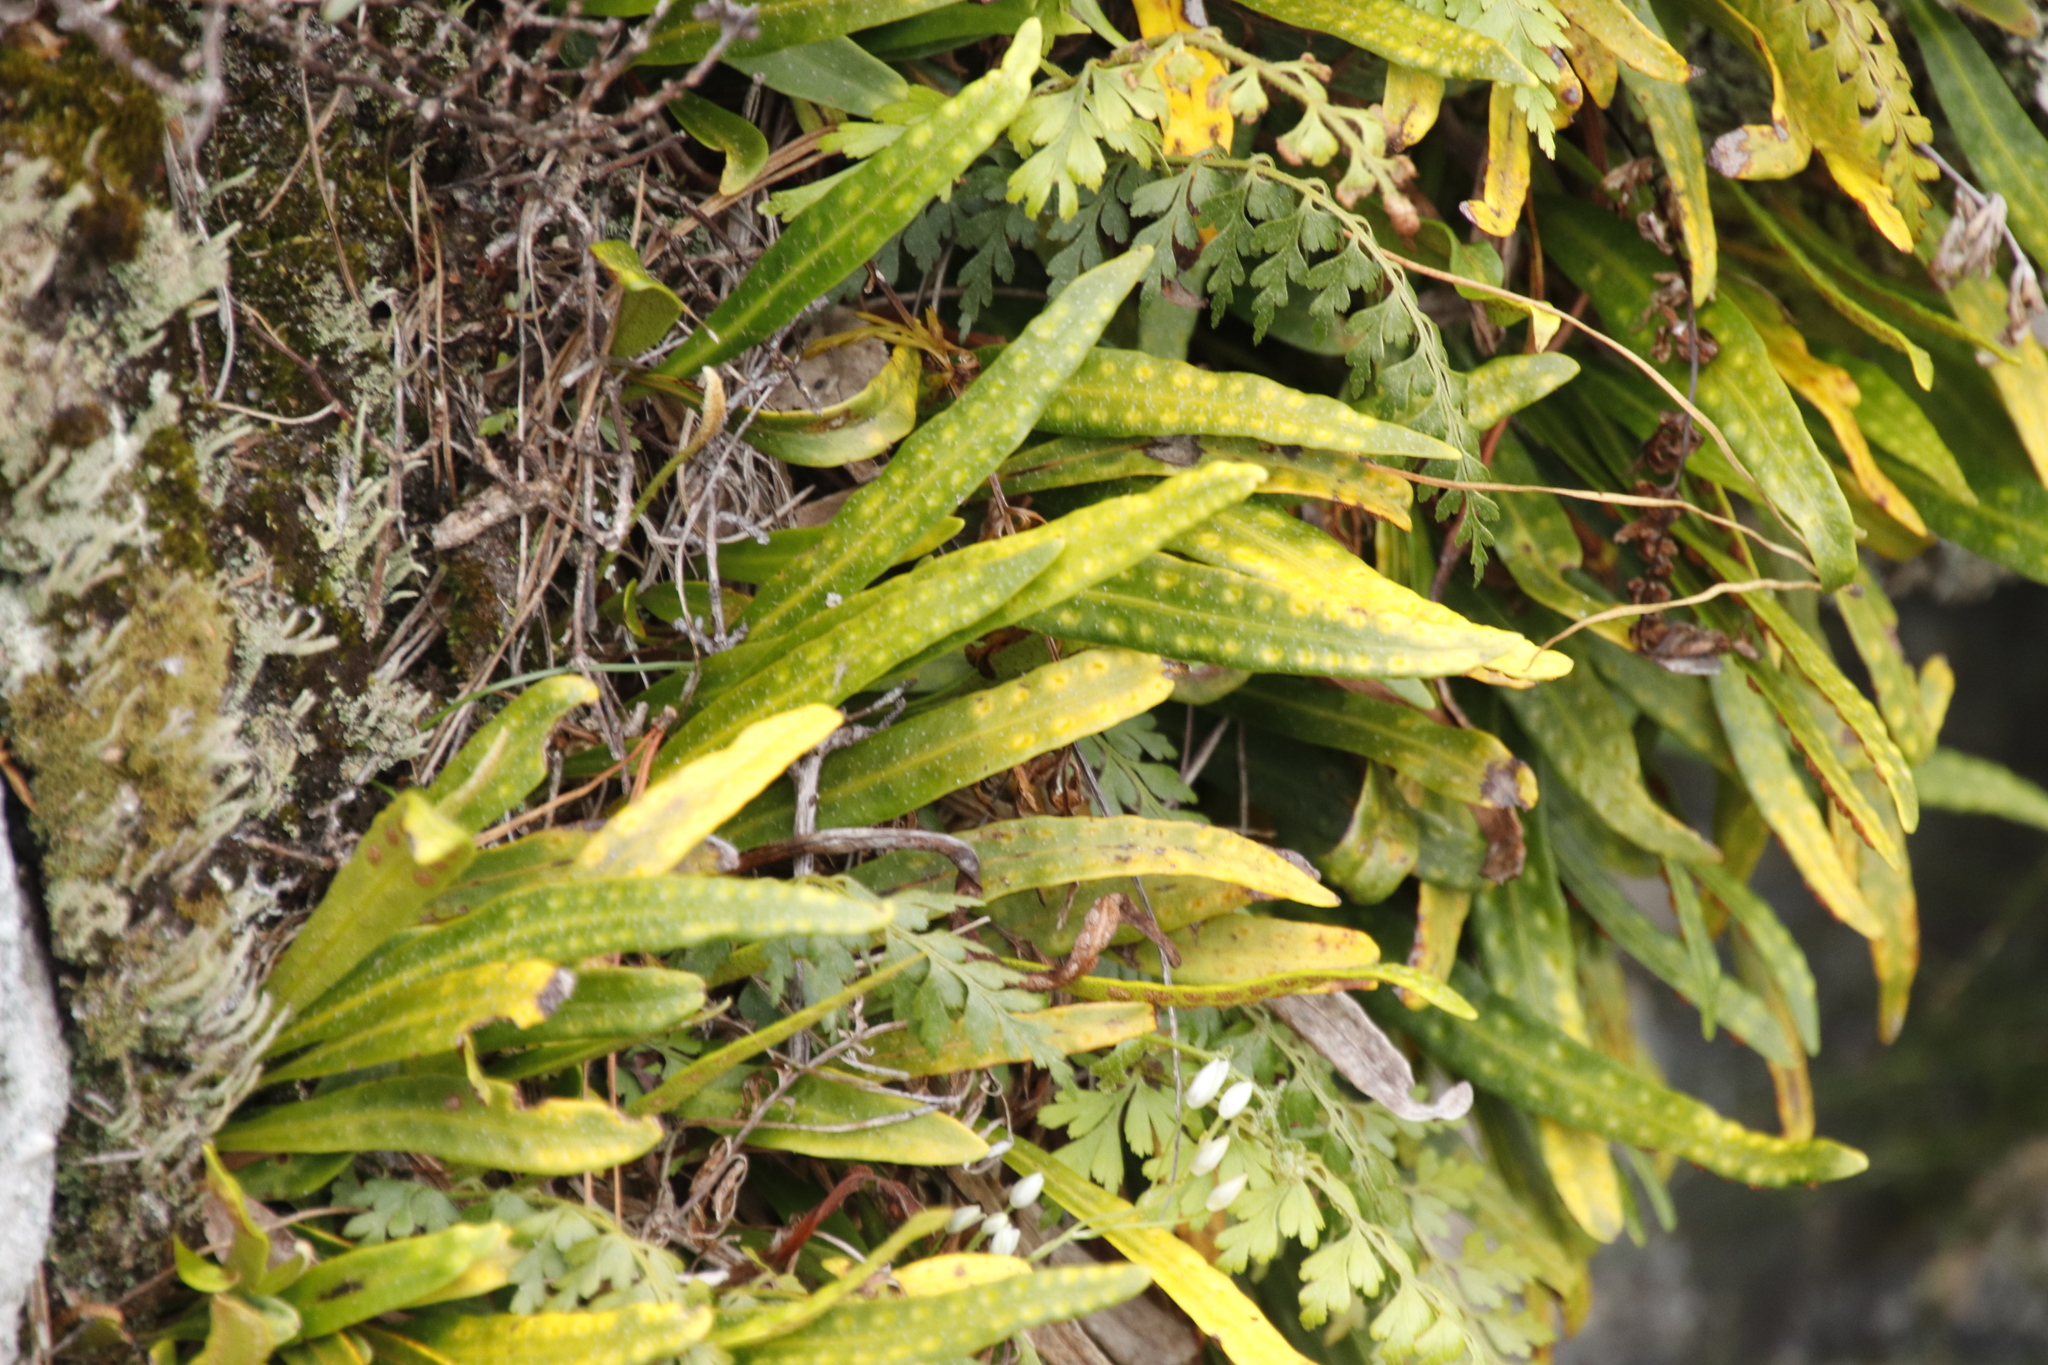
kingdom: Plantae
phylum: Tracheophyta
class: Polypodiopsida
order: Polypodiales
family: Polypodiaceae
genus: Pleopeltis
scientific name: Pleopeltis macrocarpa
